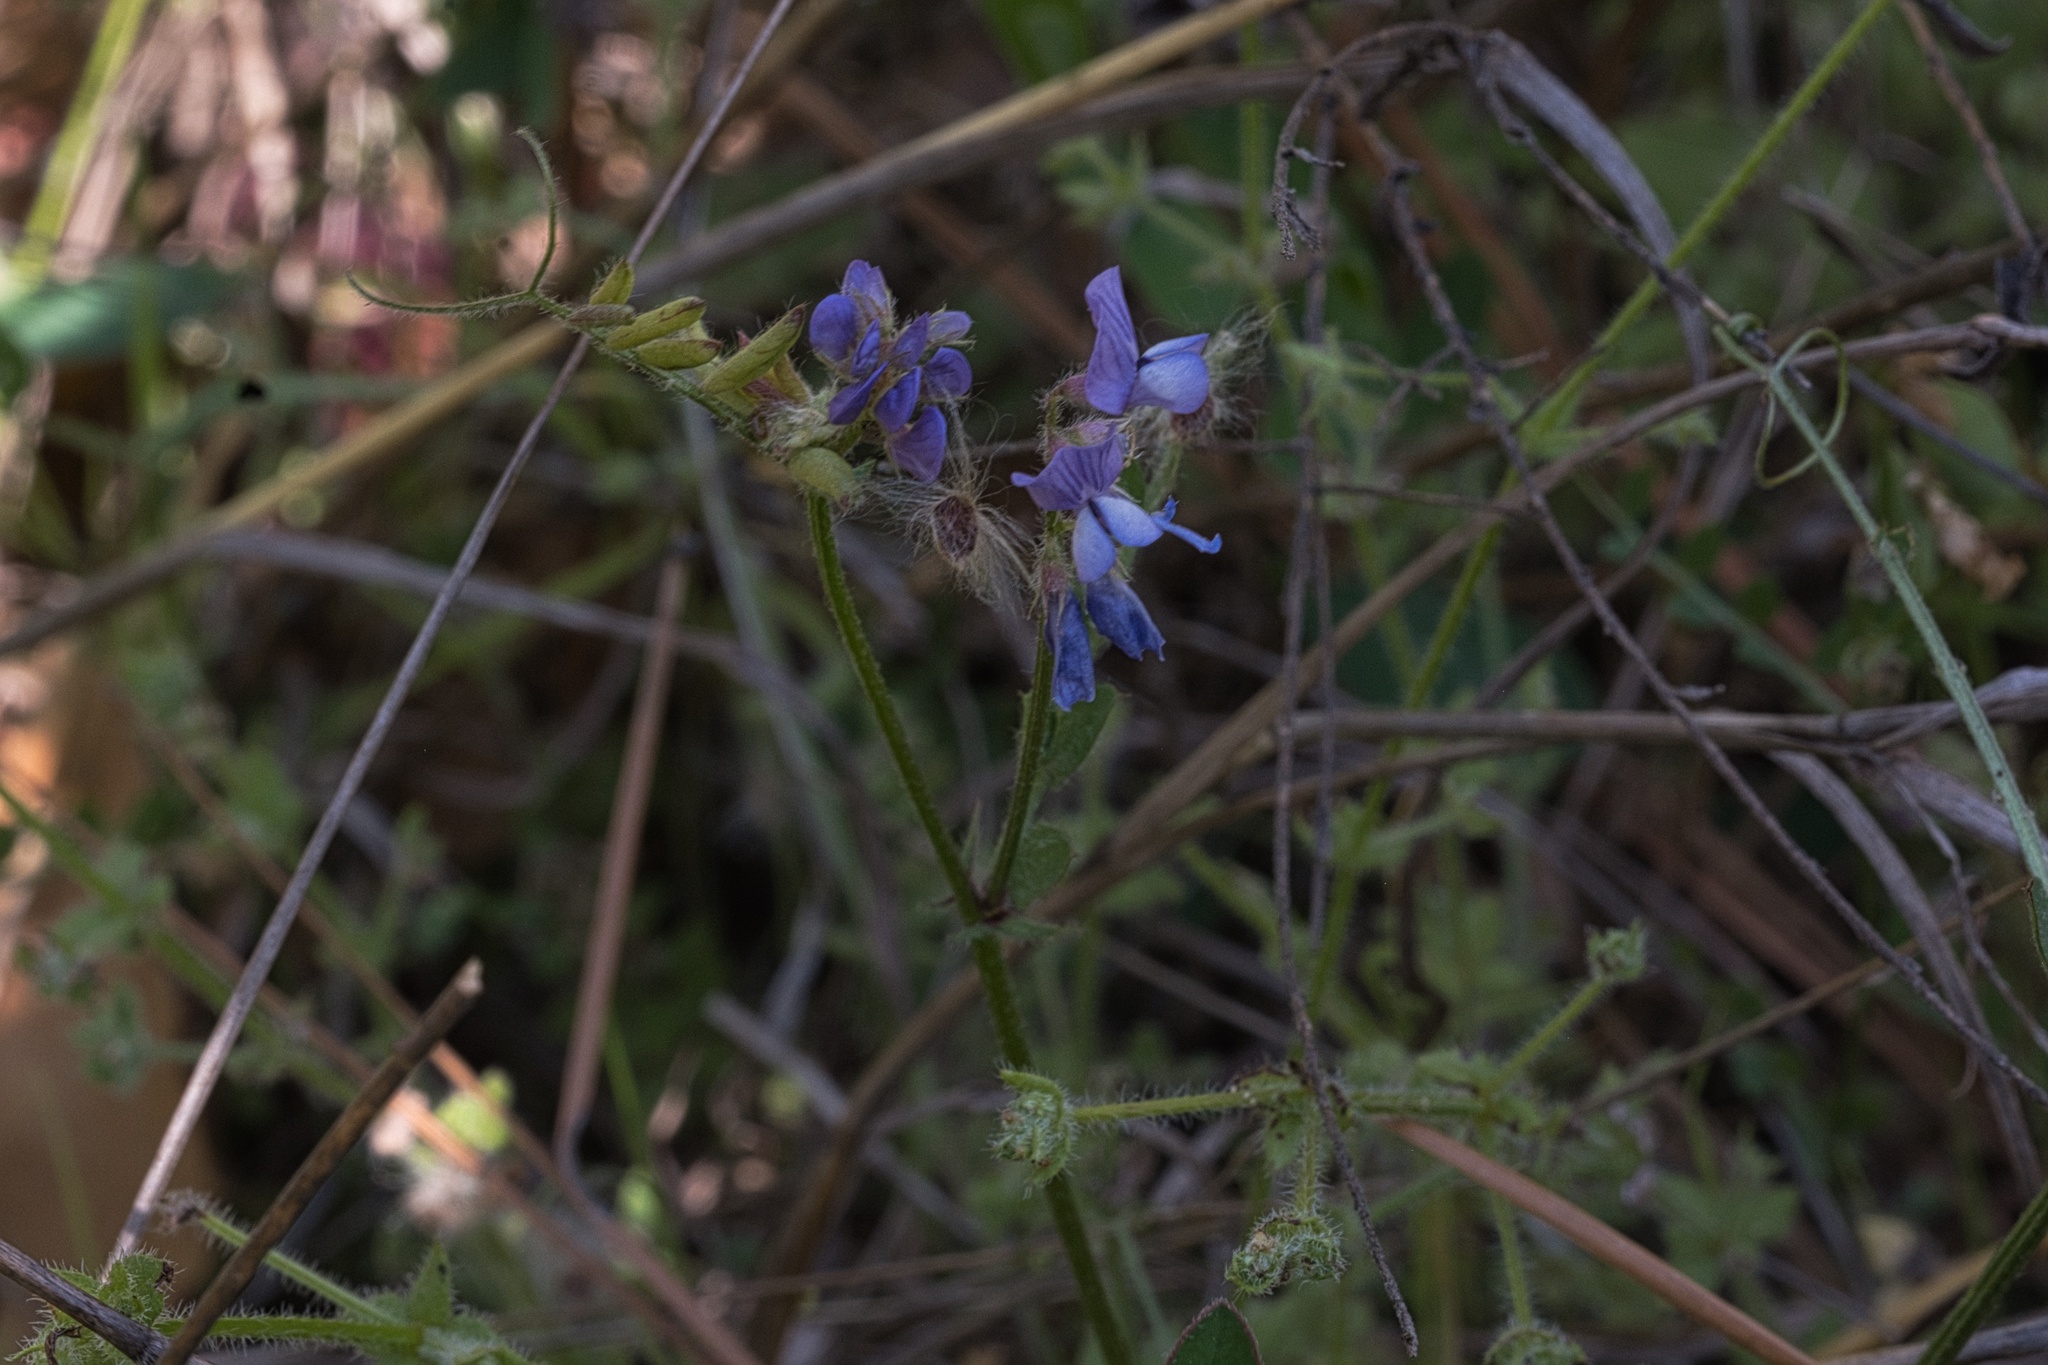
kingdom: Plantae
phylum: Tracheophyta
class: Magnoliopsida
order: Fabales
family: Fabaceae
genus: Vicia
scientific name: Vicia ludoviciana
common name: Louisiana vetch
